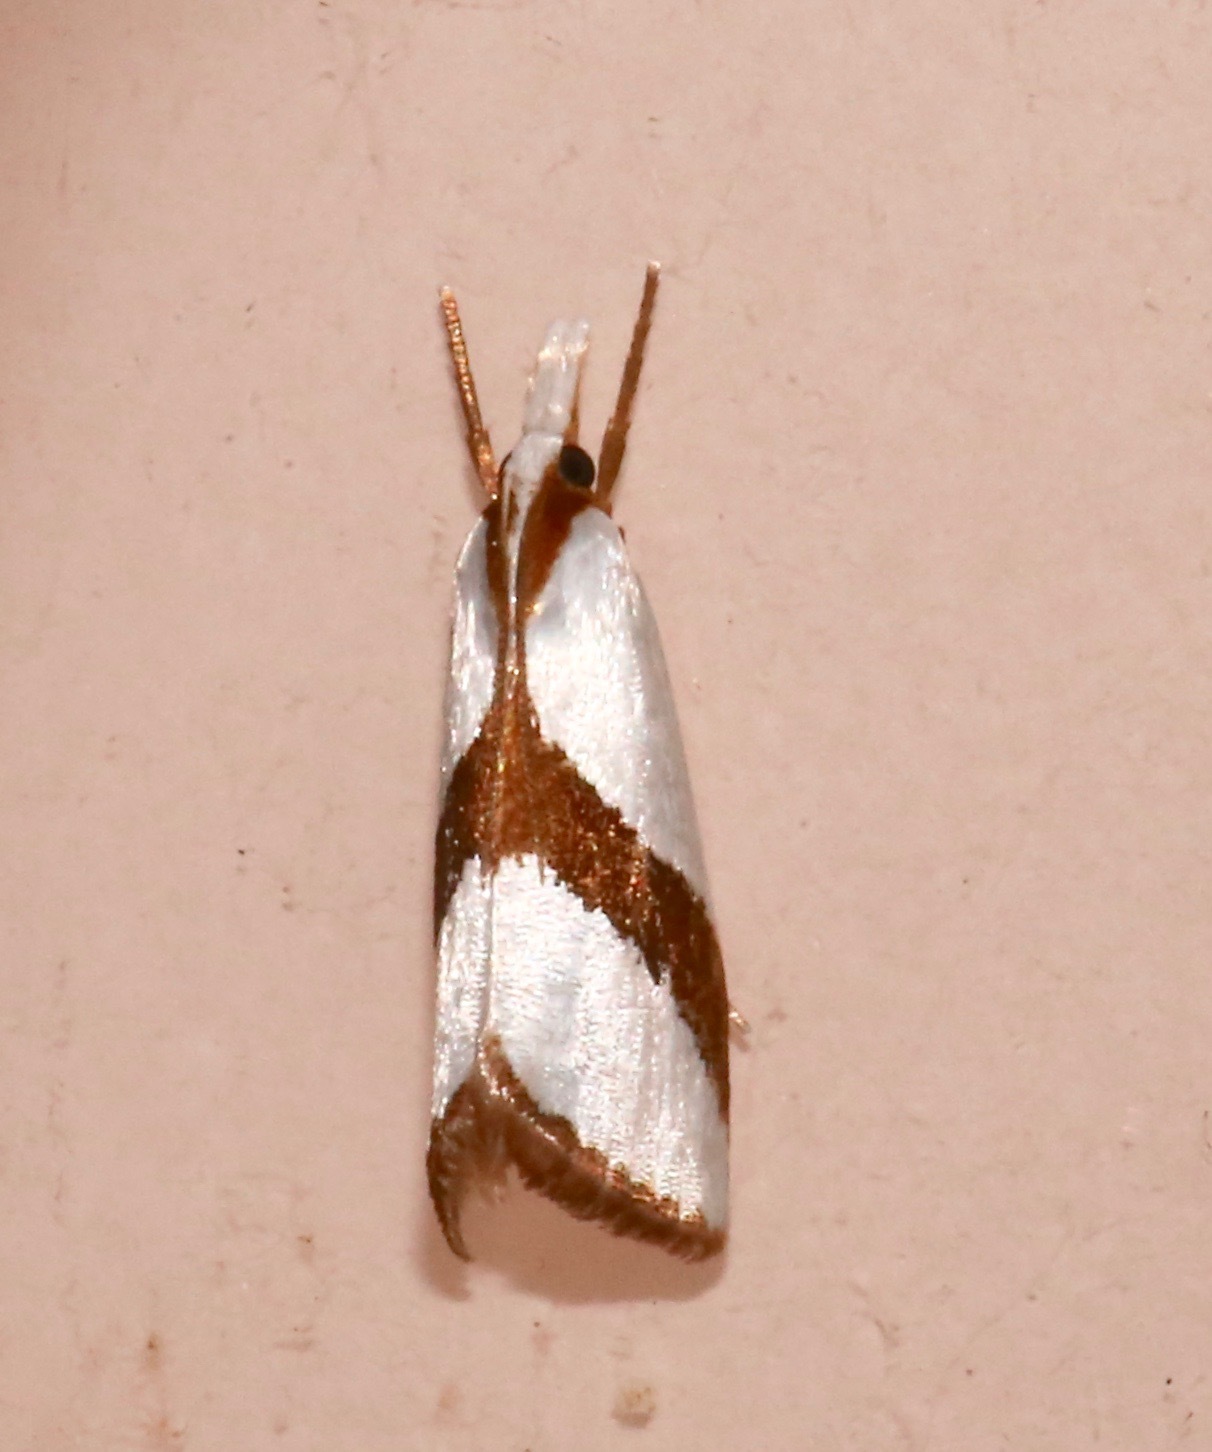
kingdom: Animalia
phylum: Arthropoda
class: Insecta
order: Lepidoptera
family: Crambidae
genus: Vaxi
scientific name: Vaxi critica
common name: Straight-lined vaxi moth
